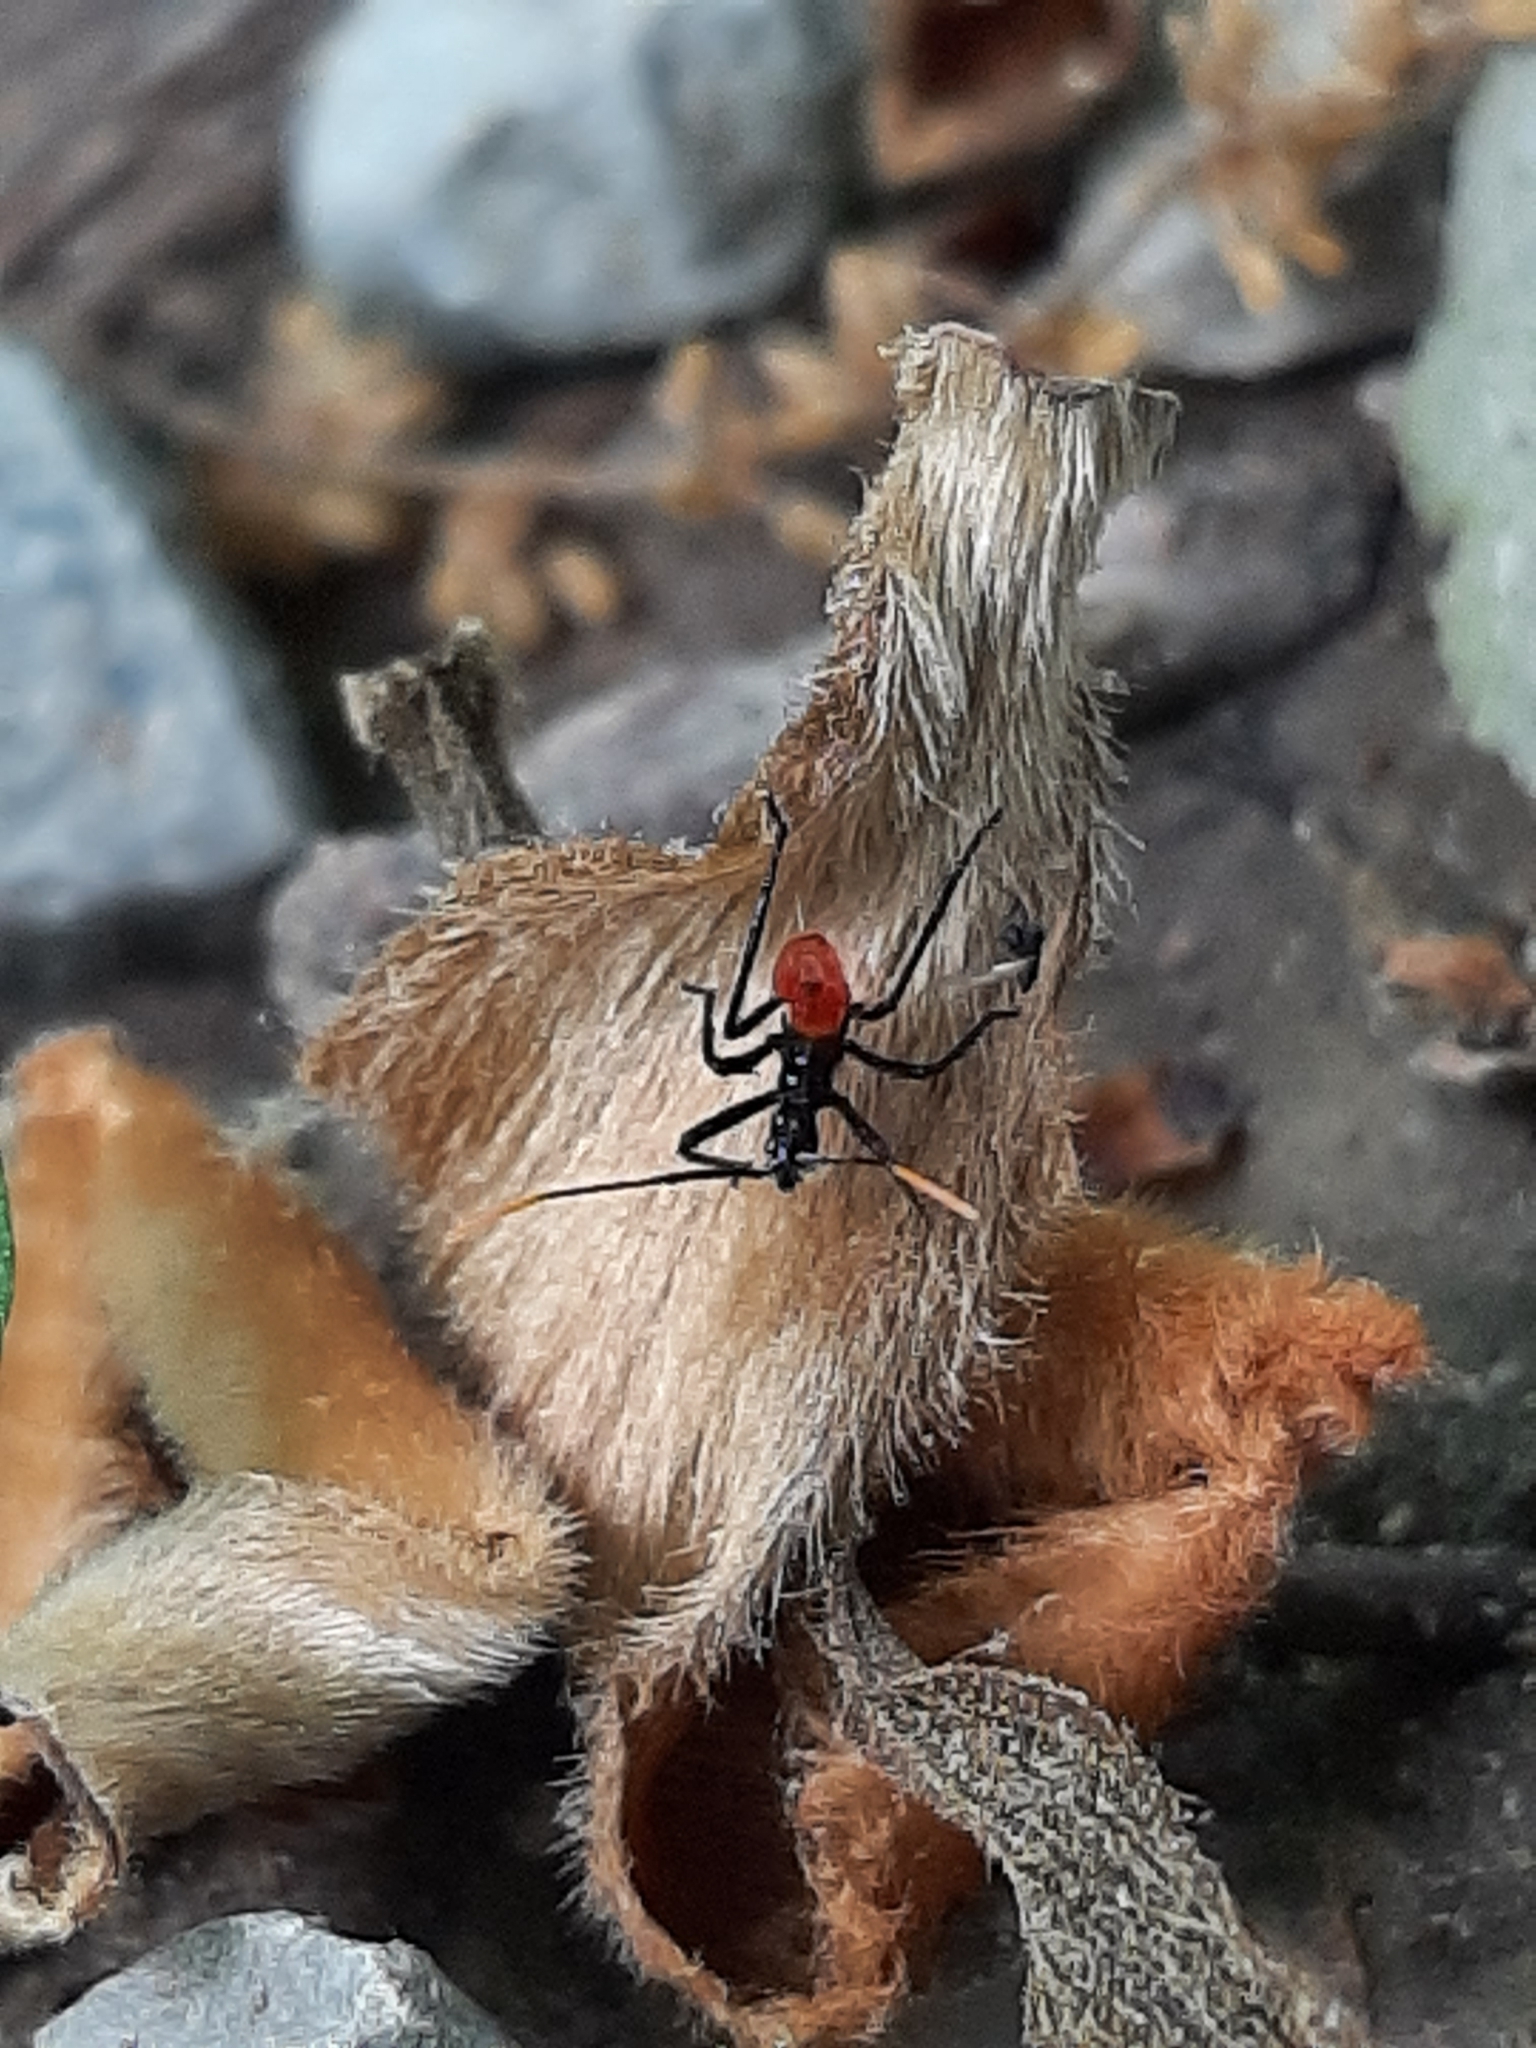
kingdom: Animalia
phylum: Arthropoda
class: Insecta
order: Hemiptera
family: Reduviidae
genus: Arilus
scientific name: Arilus cristatus
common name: North american wheel bug
